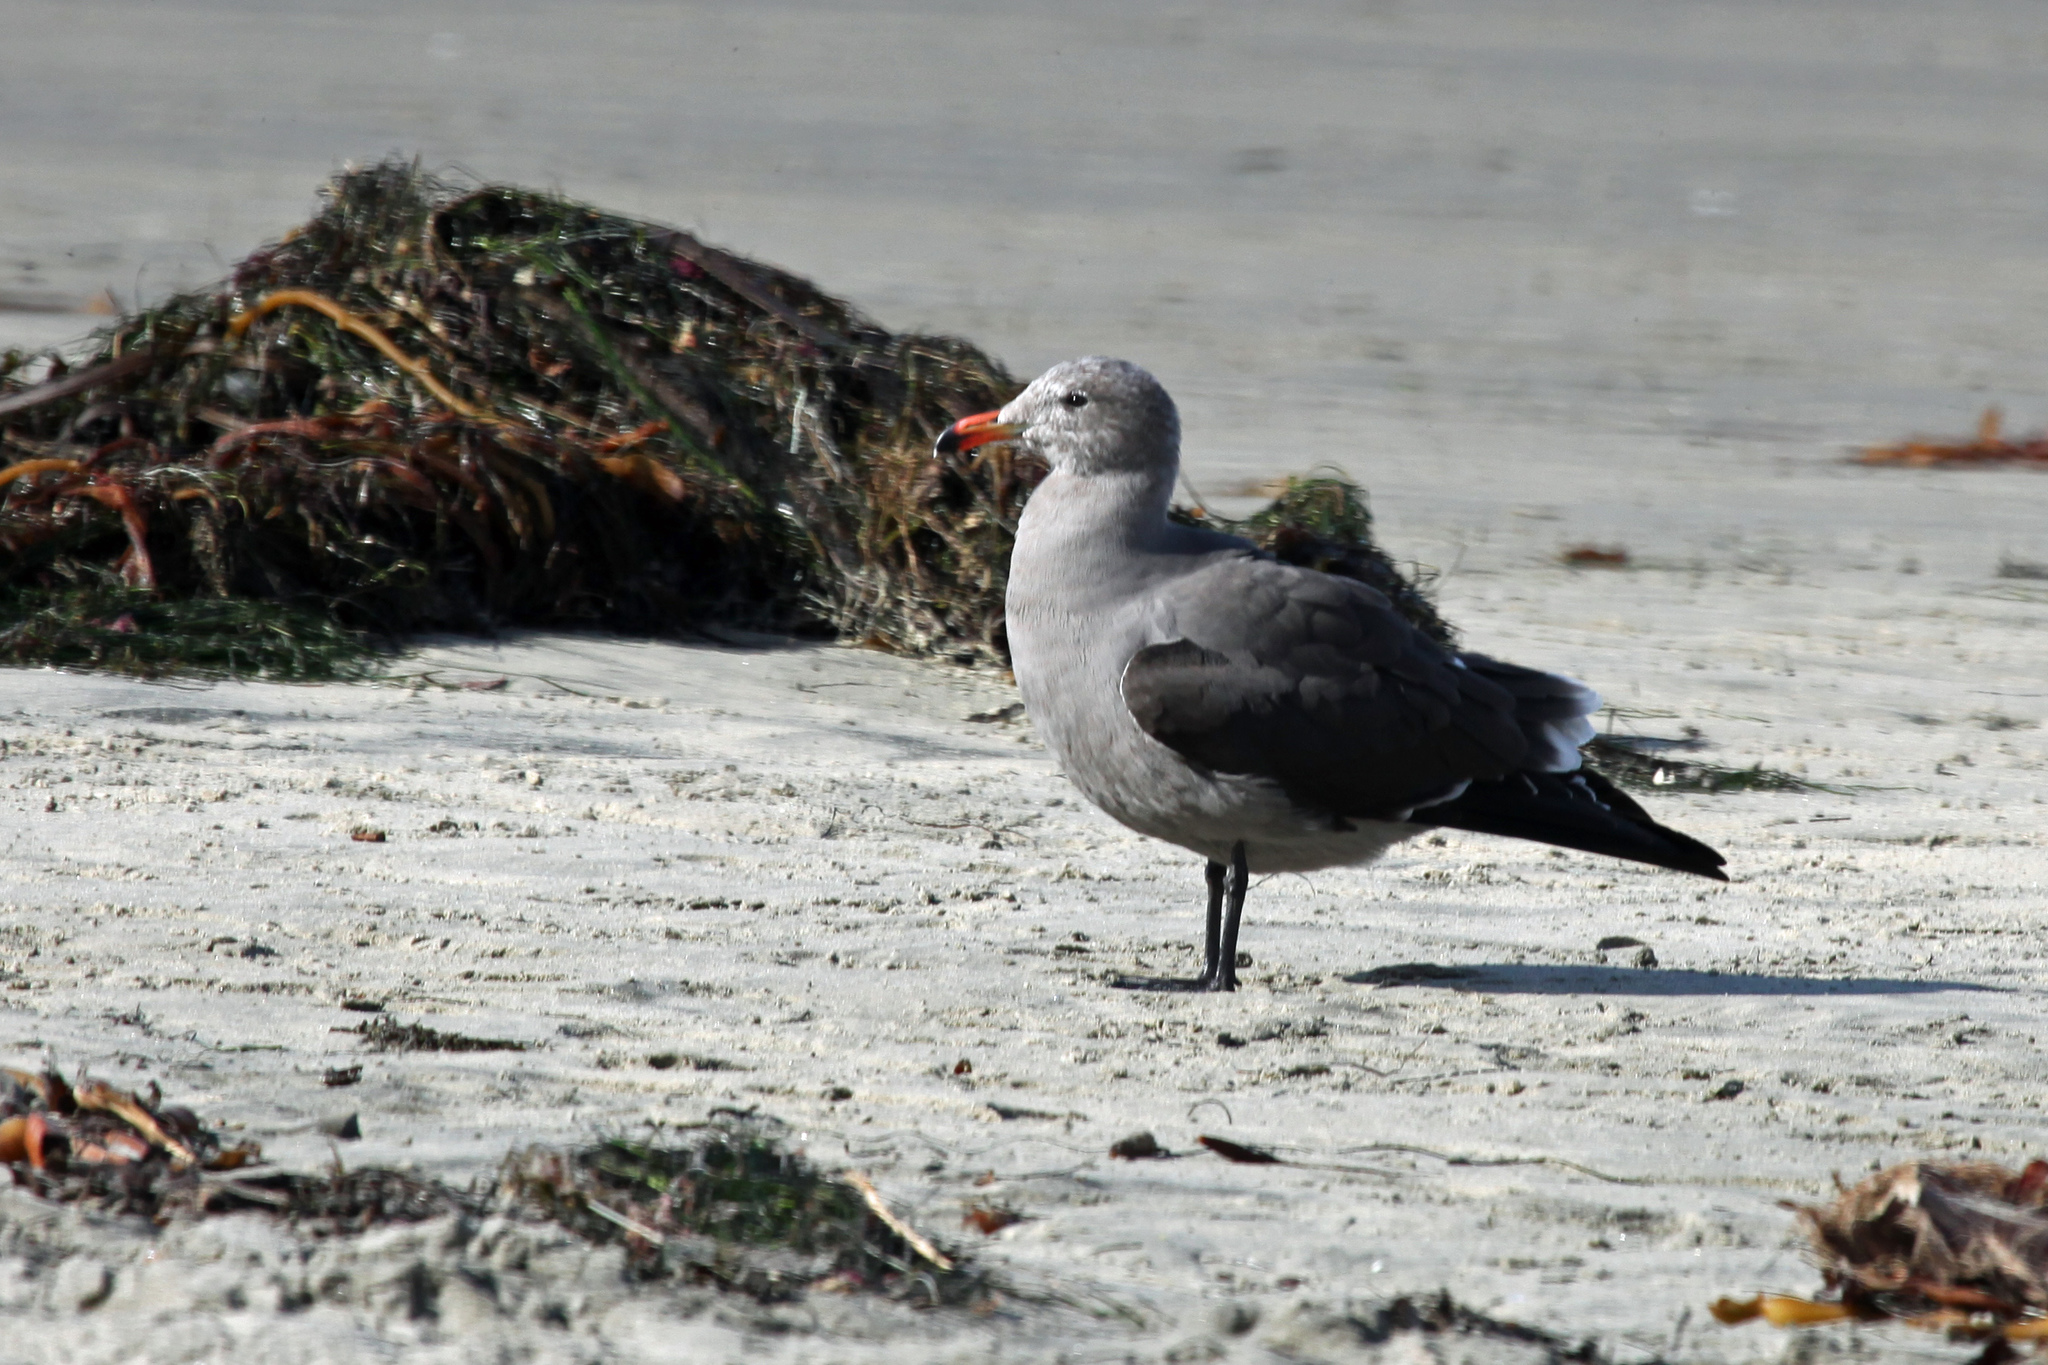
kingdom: Animalia
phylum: Chordata
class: Aves
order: Charadriiformes
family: Laridae
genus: Larus
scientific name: Larus heermanni
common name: Heermann's gull
